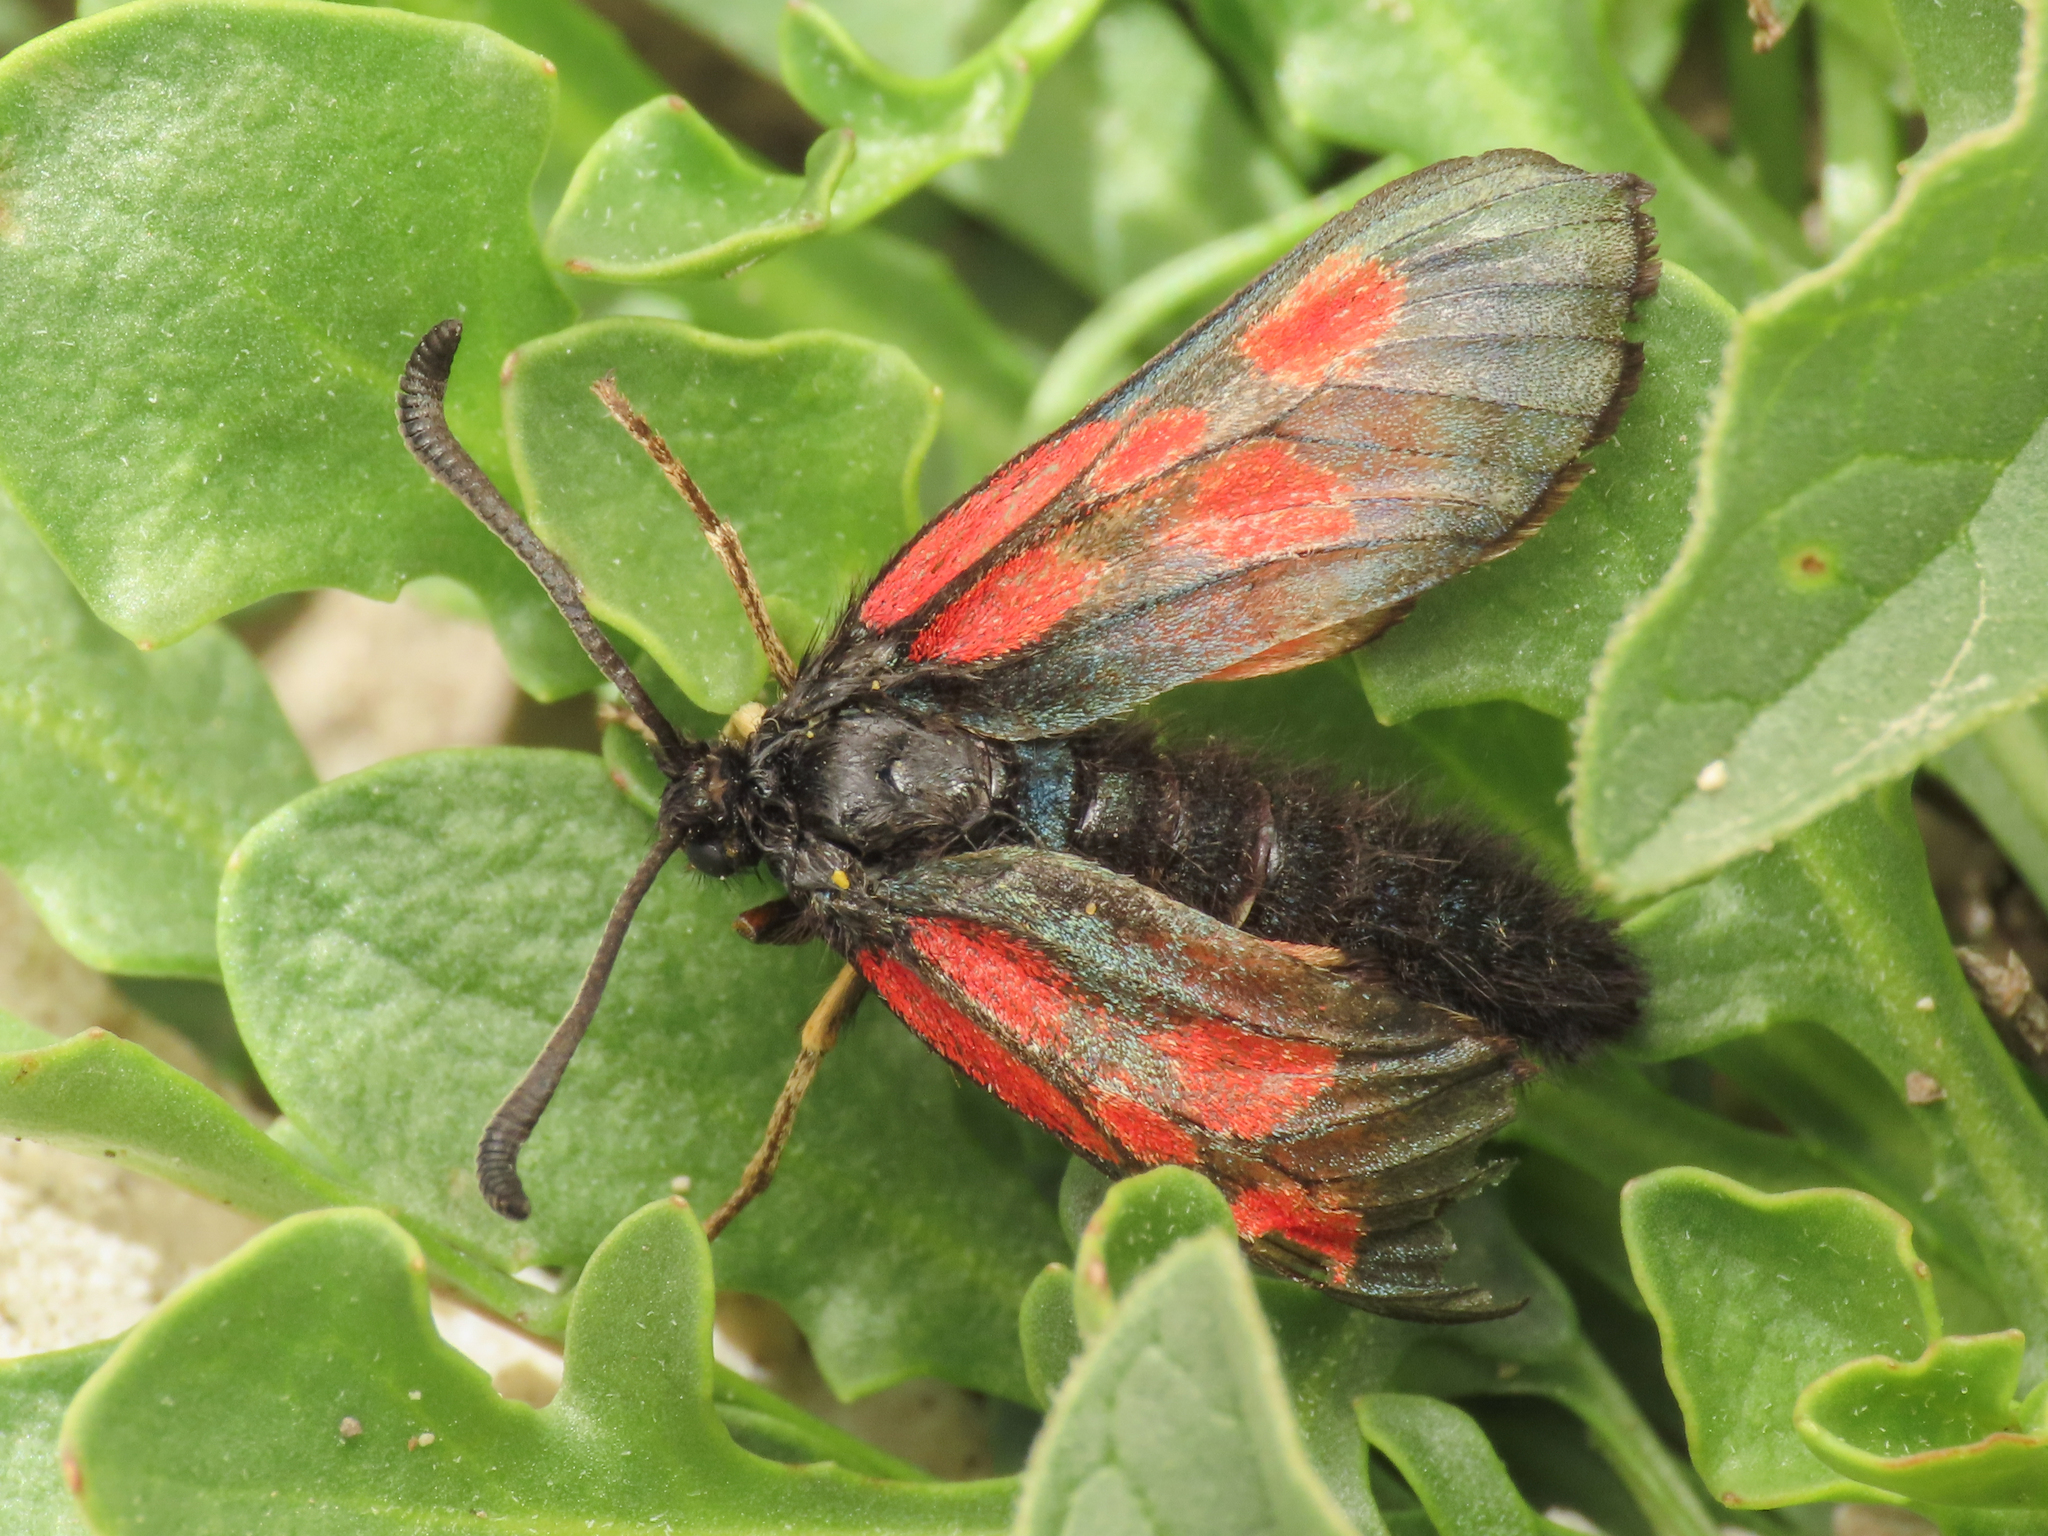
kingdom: Animalia
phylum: Arthropoda
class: Insecta
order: Lepidoptera
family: Zygaenidae
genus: Zygaena
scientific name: Zygaena exulans
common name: Scotch burnet
